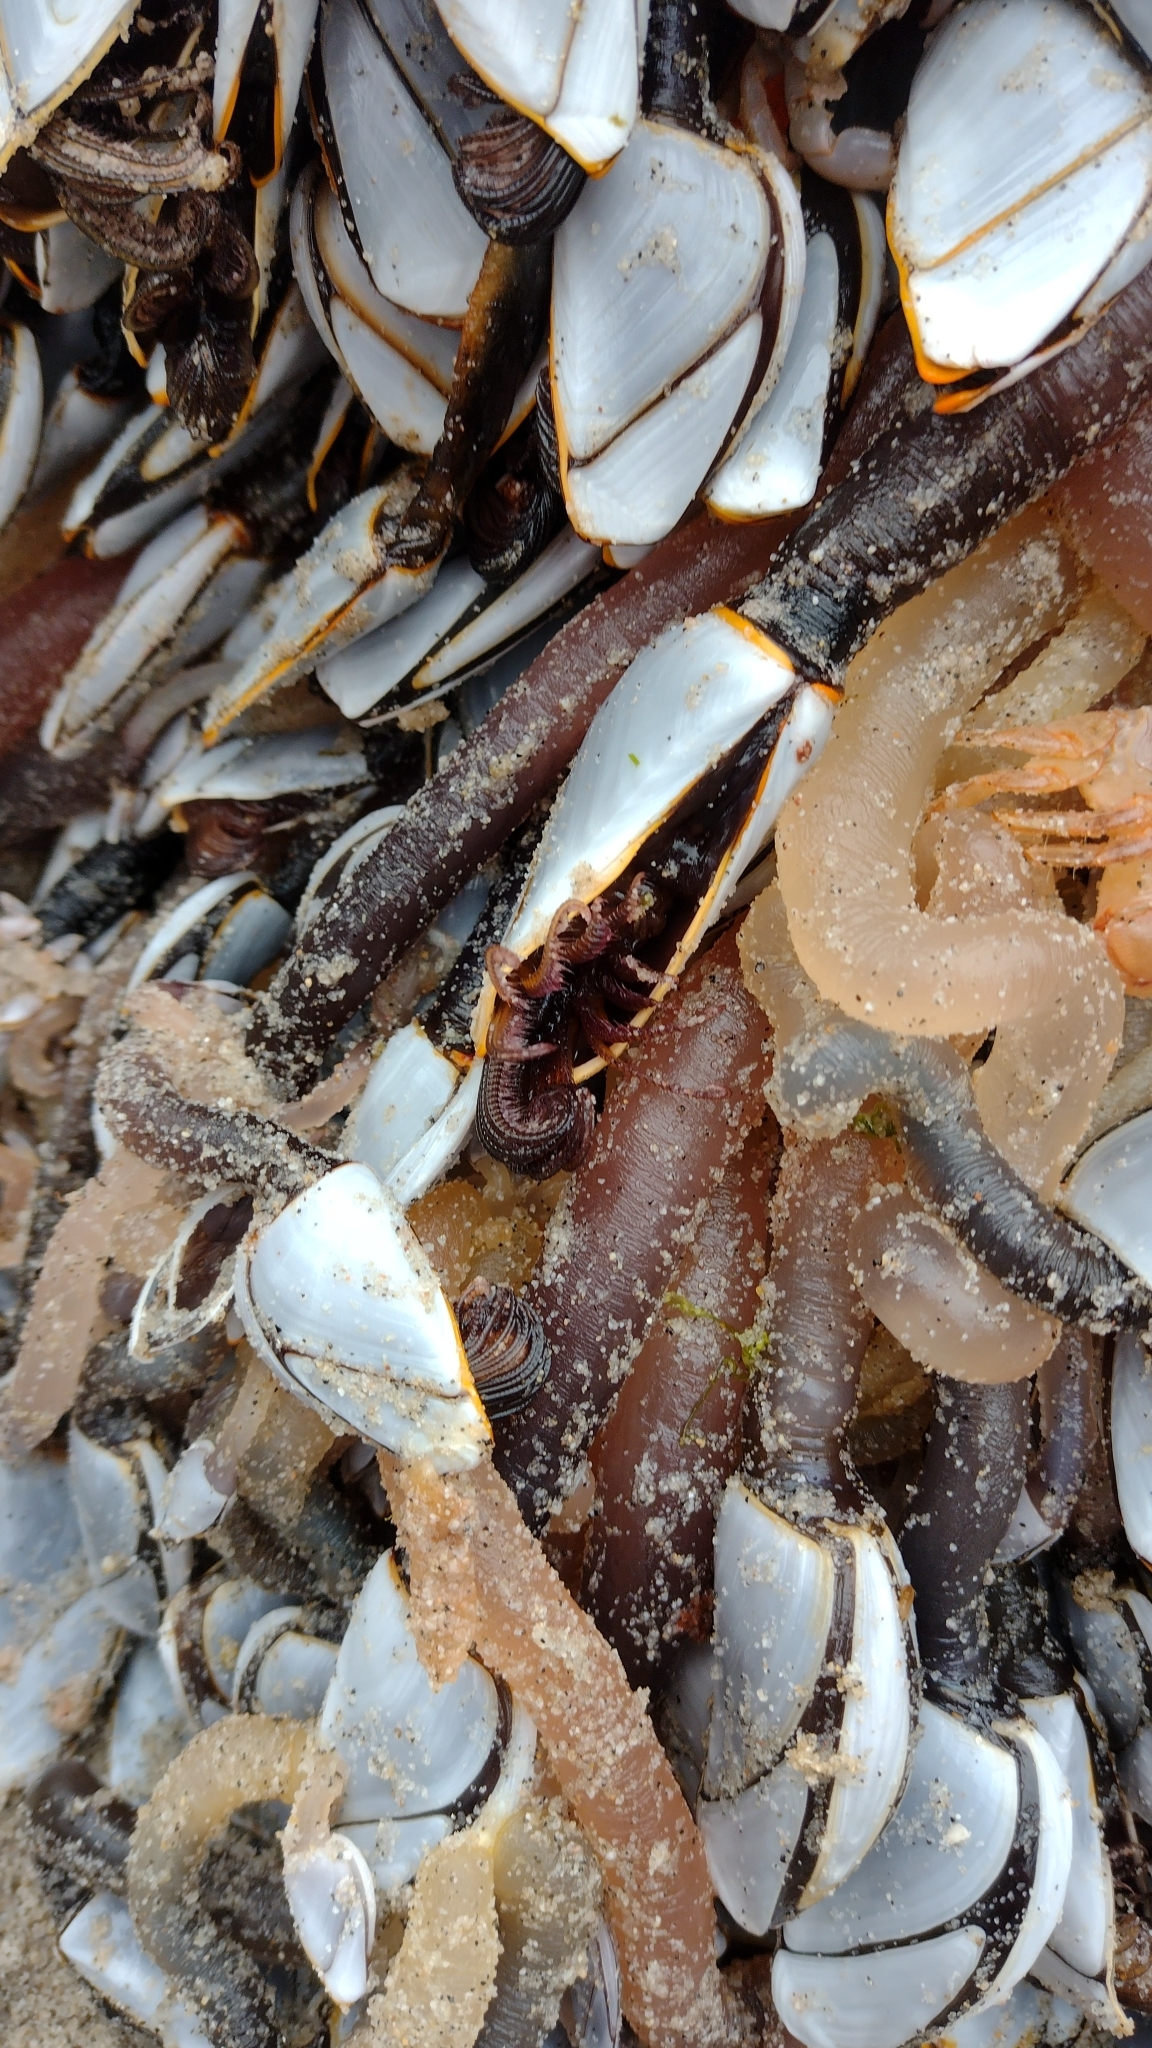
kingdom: Animalia
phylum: Arthropoda
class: Maxillopoda
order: Pedunculata
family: Lepadidae
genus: Lepas
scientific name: Lepas anatifera
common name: Common goose barnacle
